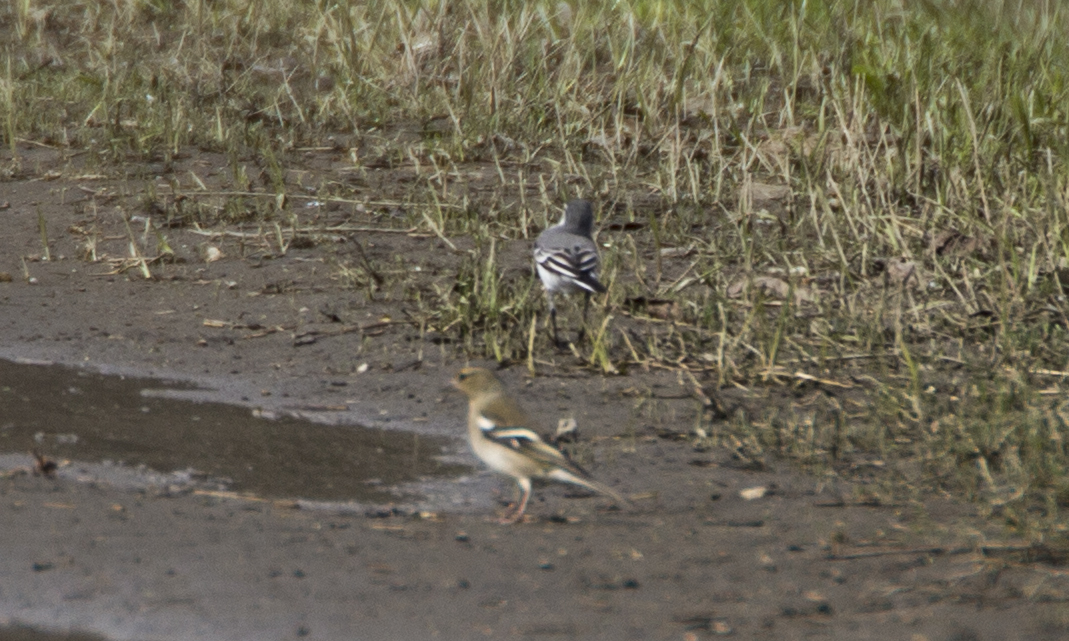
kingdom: Animalia
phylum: Chordata
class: Aves
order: Passeriformes
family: Motacillidae
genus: Motacilla
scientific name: Motacilla alba
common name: White wagtail
